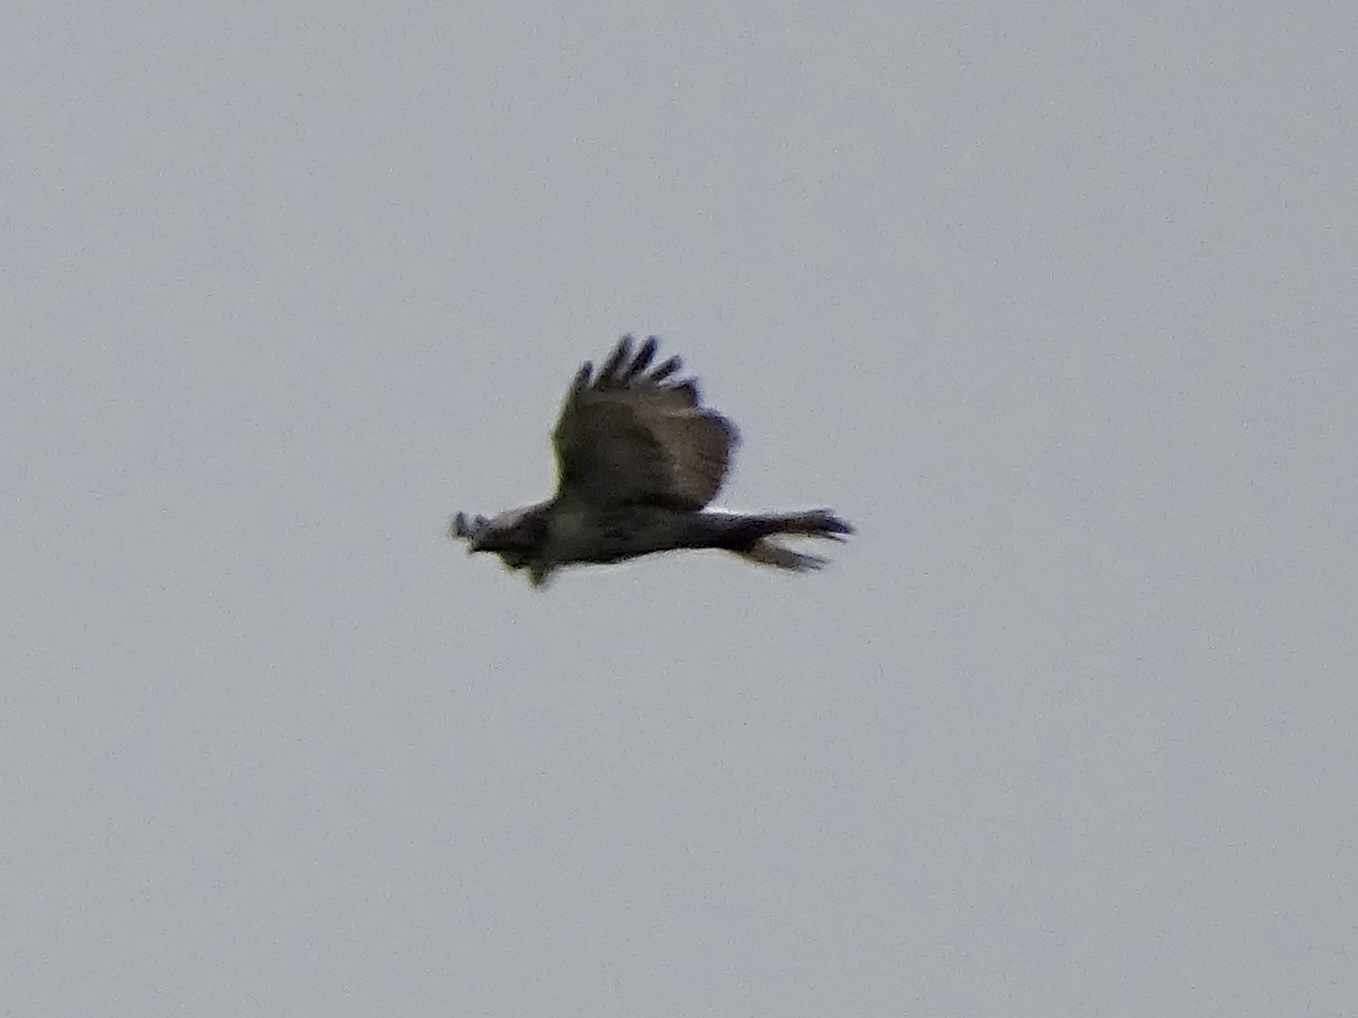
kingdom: Animalia
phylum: Chordata
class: Aves
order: Accipitriformes
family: Accipitridae
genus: Buteo
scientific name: Buteo jamaicensis
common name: Red-tailed hawk
